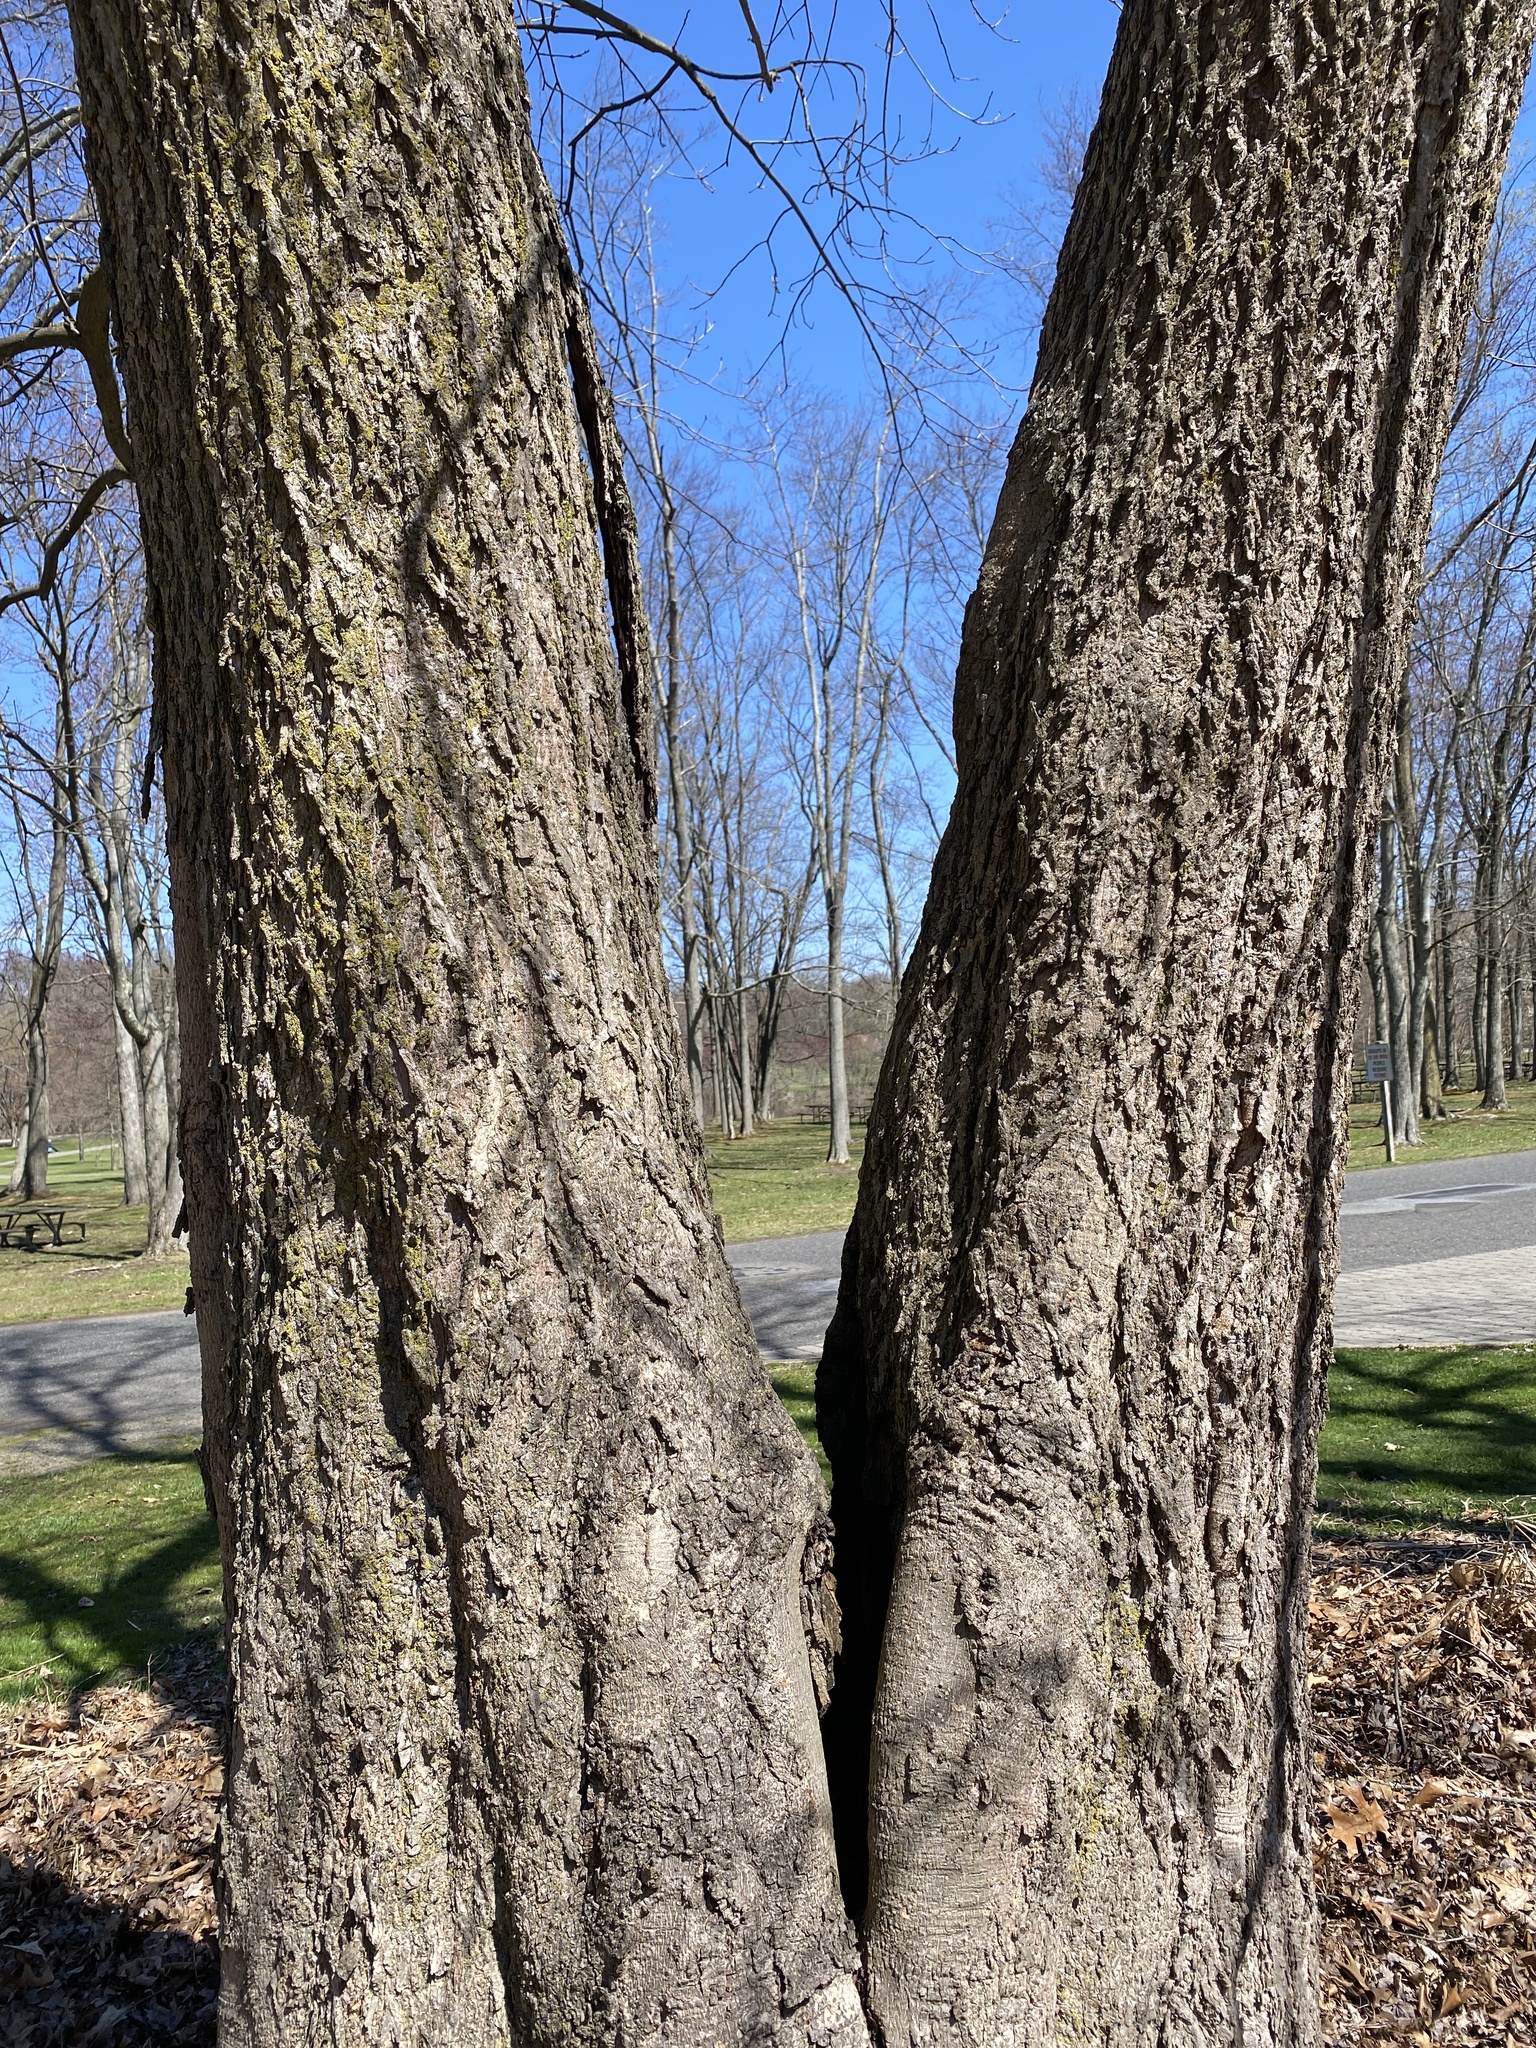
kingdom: Plantae
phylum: Tracheophyta
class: Magnoliopsida
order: Fagales
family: Juglandaceae
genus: Carya
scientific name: Carya cordiformis
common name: Bitternut hickory
